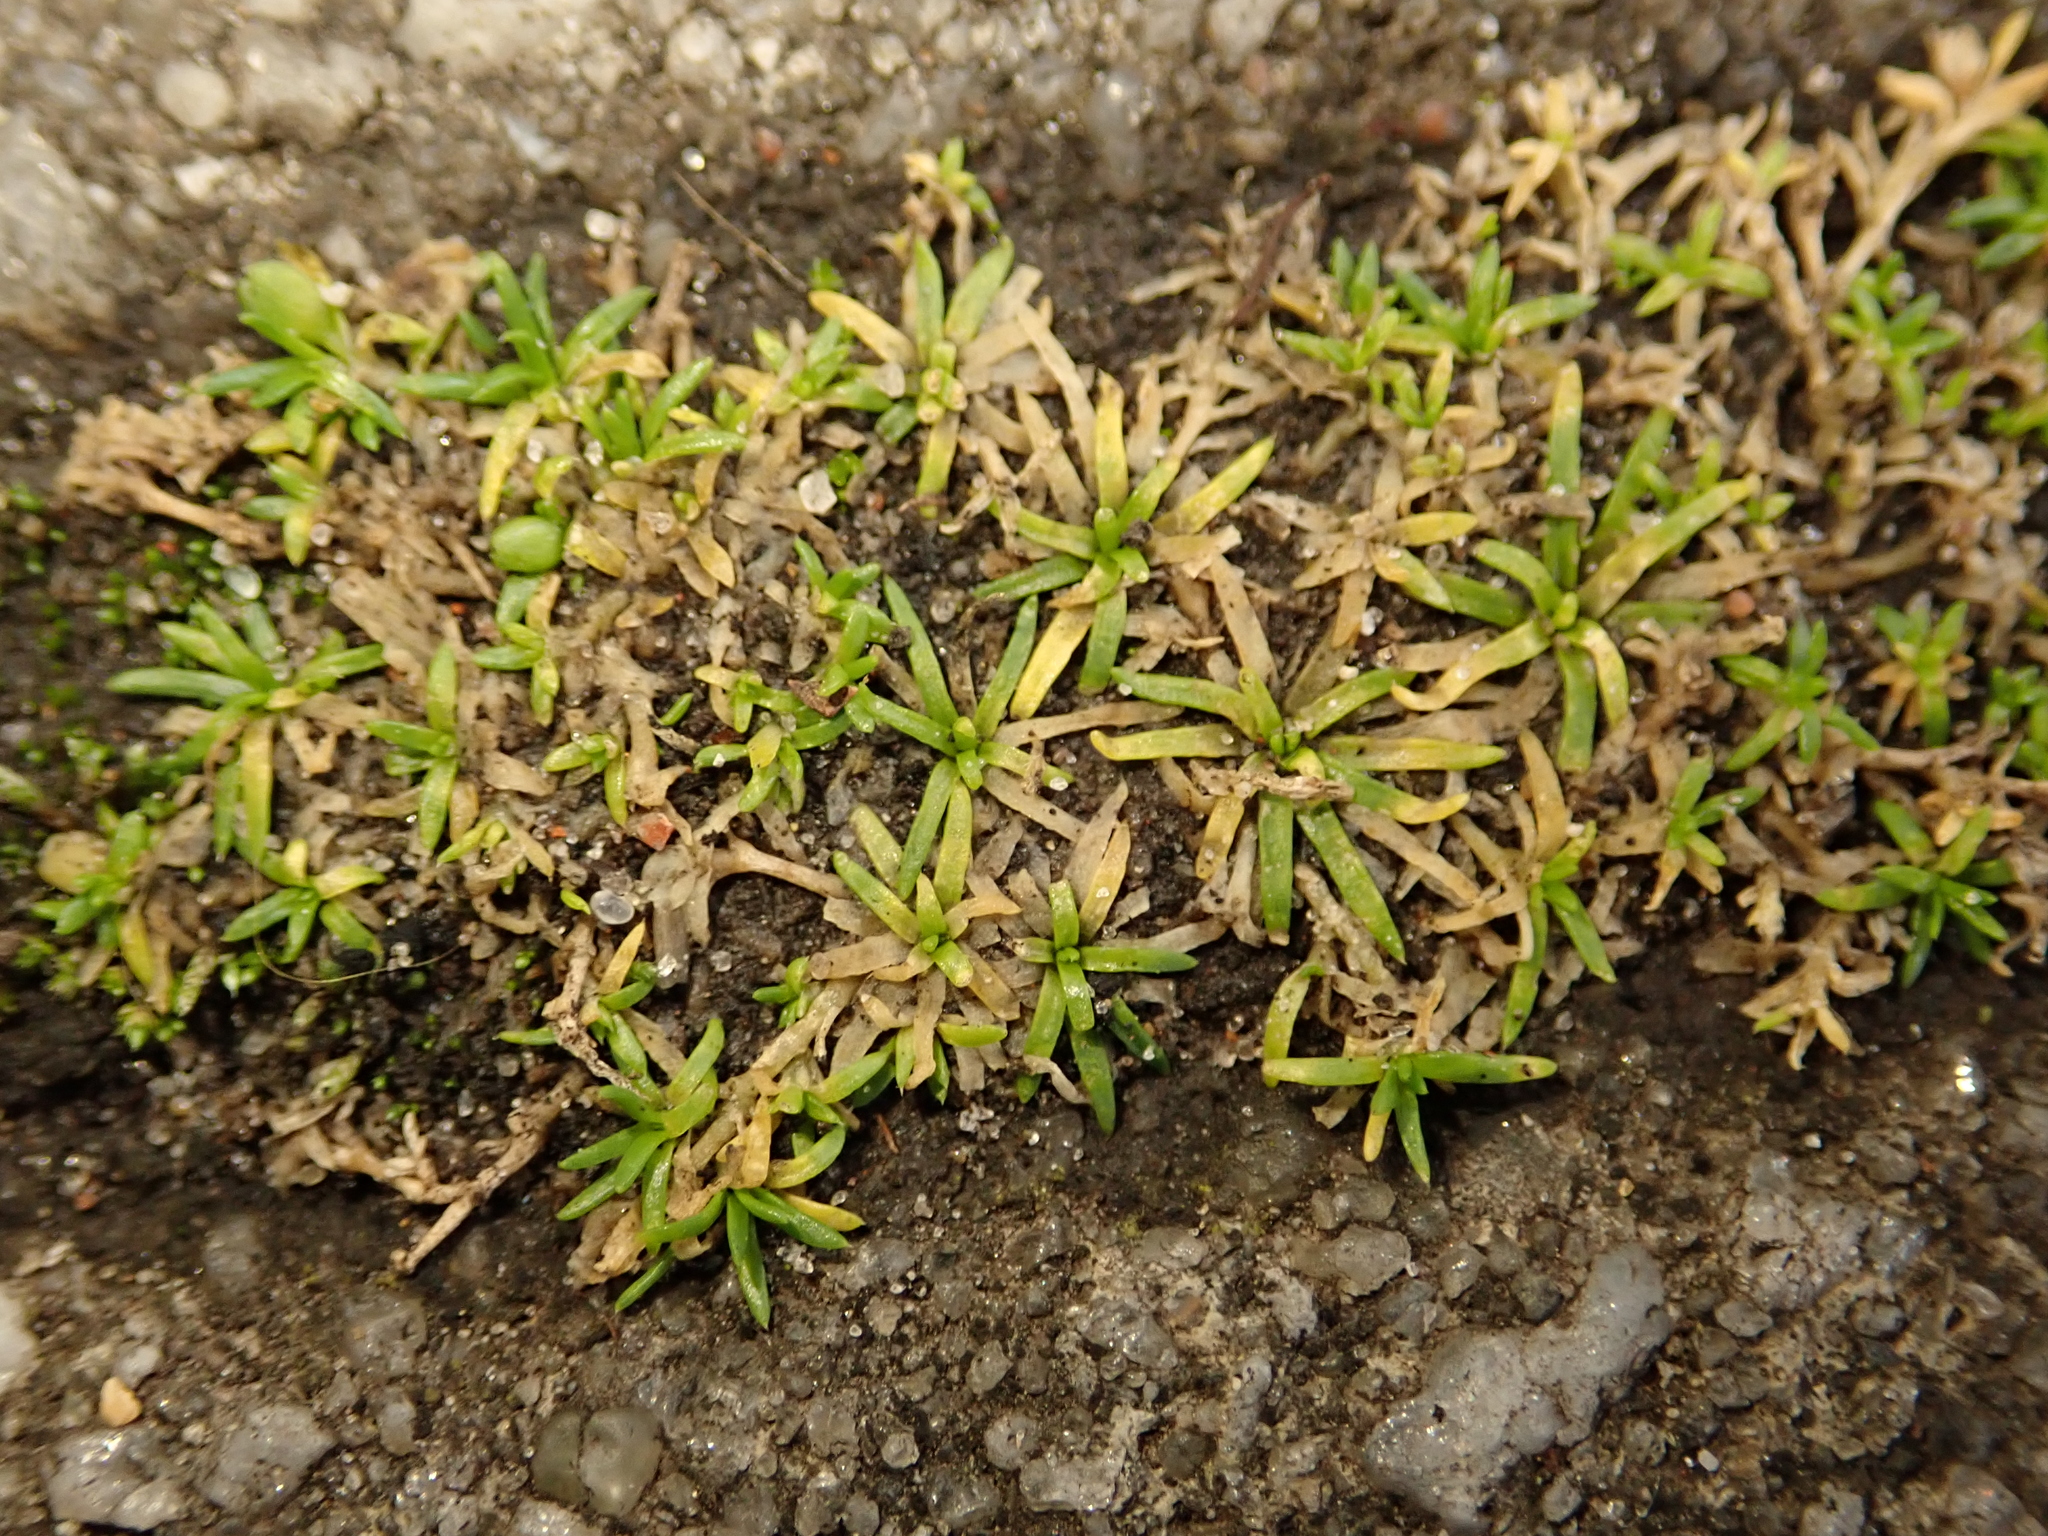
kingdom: Plantae
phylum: Tracheophyta
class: Magnoliopsida
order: Caryophyllales
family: Caryophyllaceae
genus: Sagina
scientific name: Sagina procumbens
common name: Procumbent pearlwort
